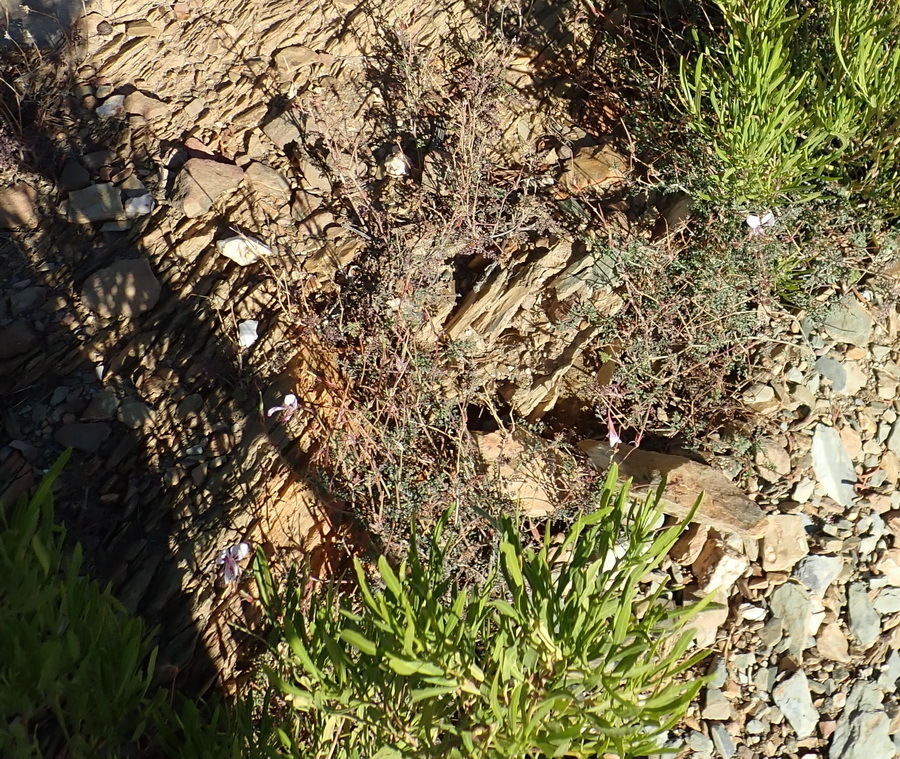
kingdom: Plantae
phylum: Tracheophyta
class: Magnoliopsida
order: Geraniales
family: Geraniaceae
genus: Pelargonium
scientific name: Pelargonium caucalifolium
